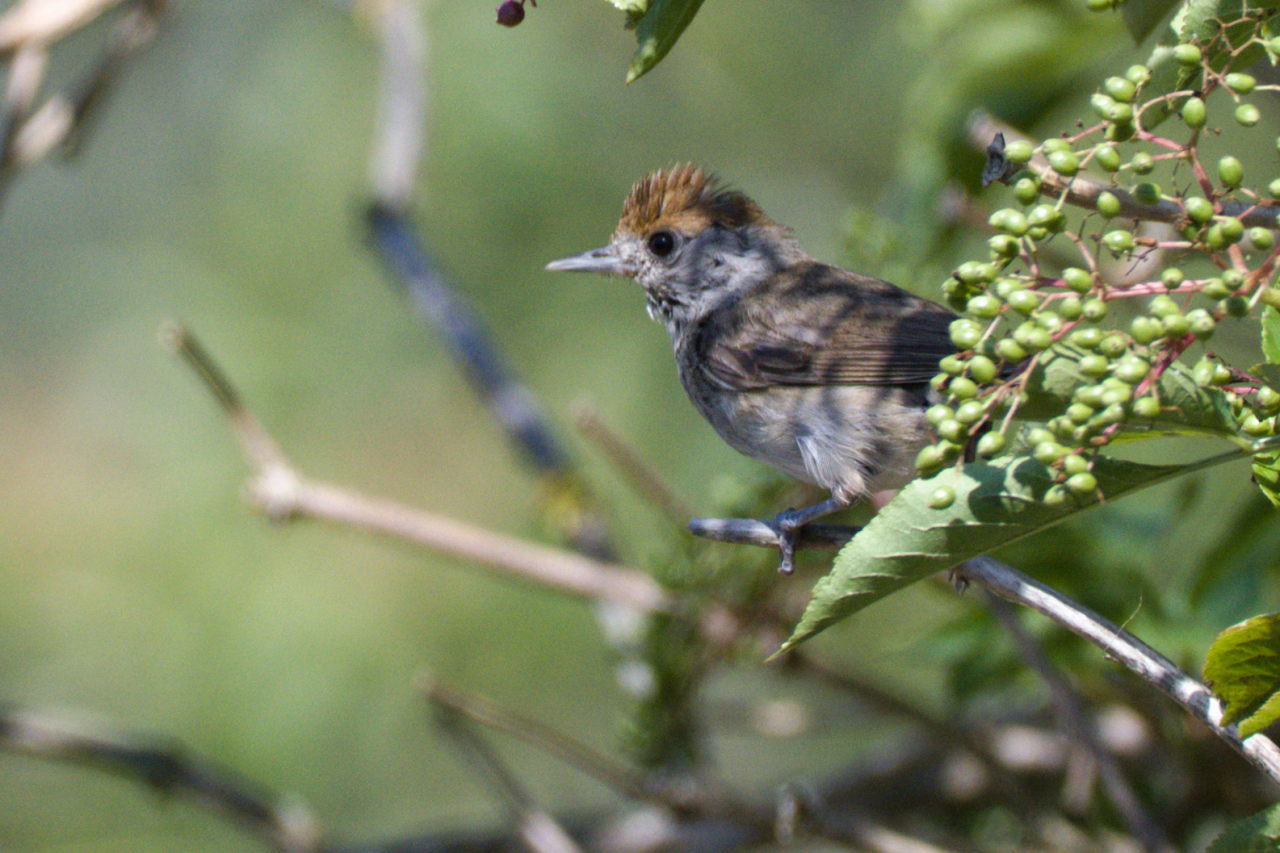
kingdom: Animalia
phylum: Chordata
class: Aves
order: Passeriformes
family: Sylviidae
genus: Sylvia
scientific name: Sylvia atricapilla
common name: Eurasian blackcap
